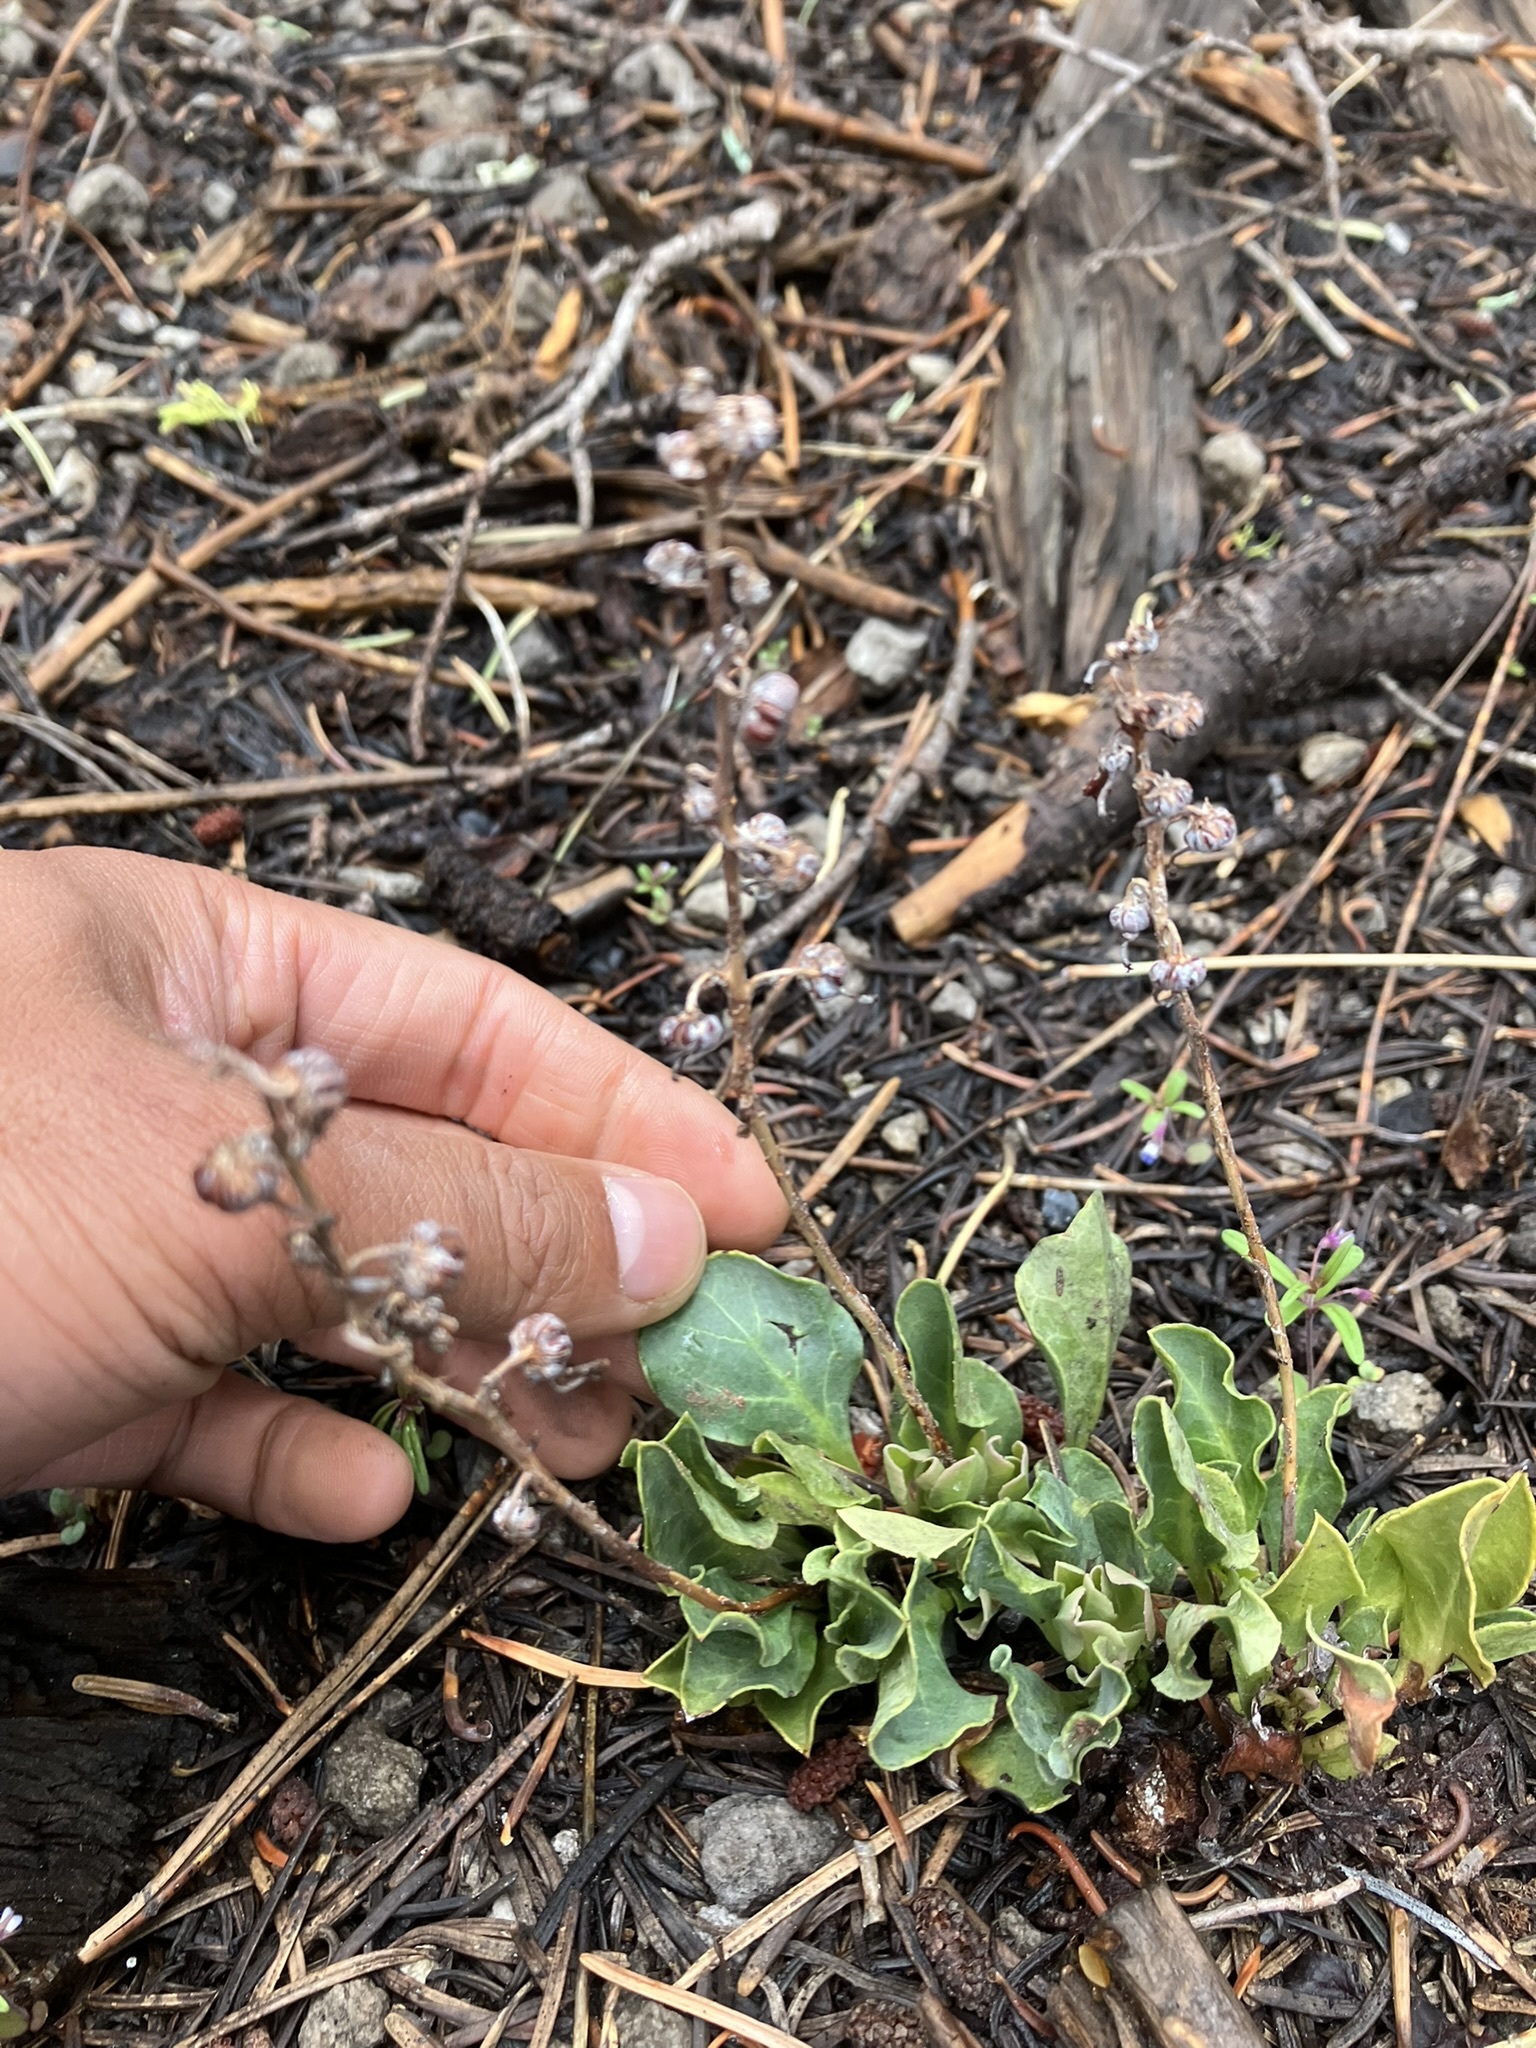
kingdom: Plantae
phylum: Tracheophyta
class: Magnoliopsida
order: Ericales
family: Ericaceae
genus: Pyrola
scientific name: Pyrola dentata
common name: Tooth-leaved wintergreen
